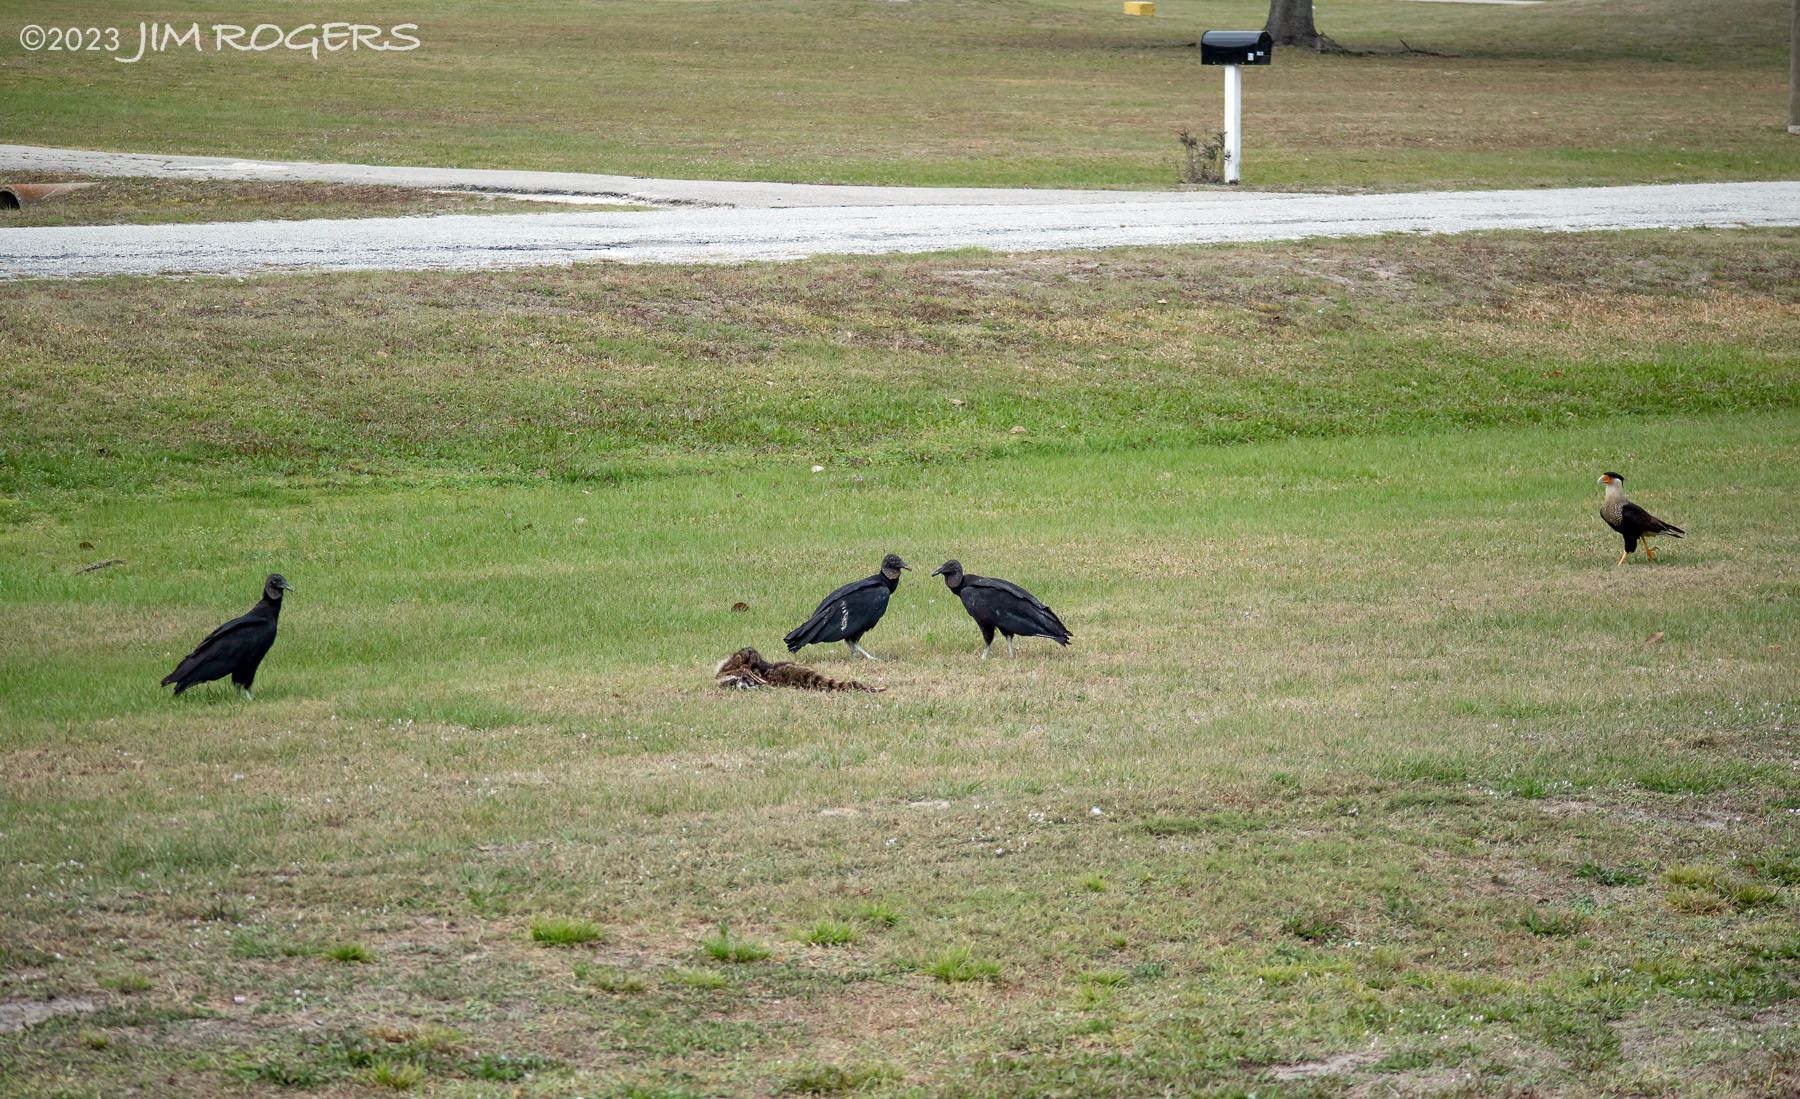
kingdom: Animalia
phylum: Chordata
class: Aves
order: Falconiformes
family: Falconidae
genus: Caracara
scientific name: Caracara plancus
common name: Southern caracara
